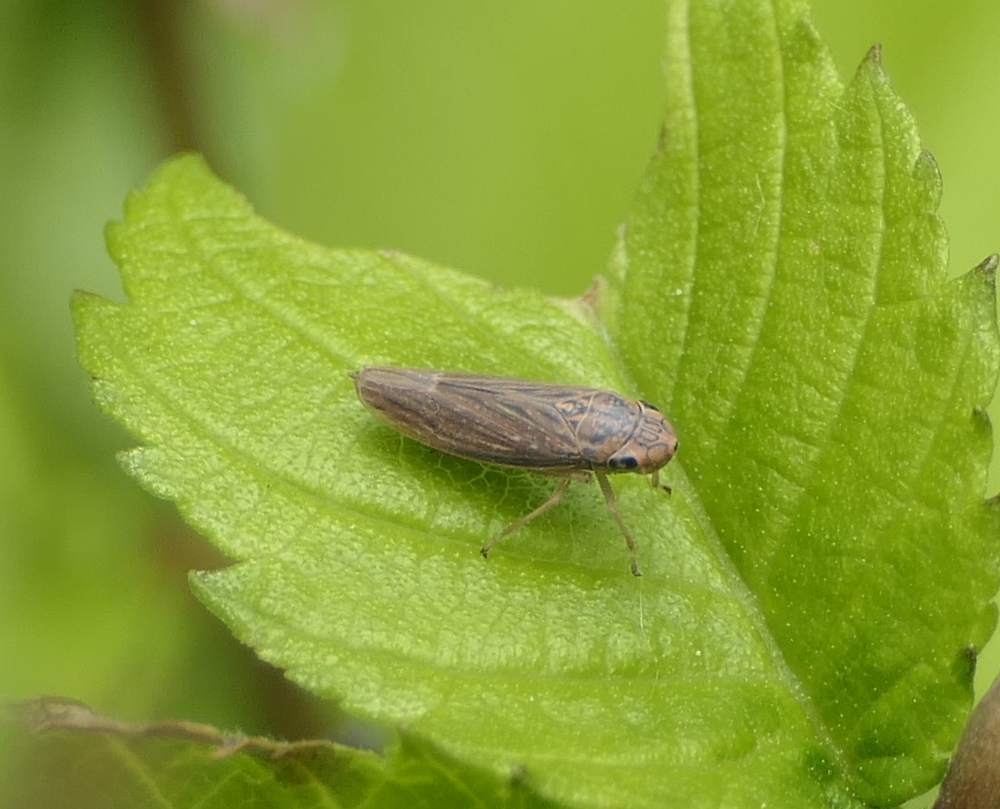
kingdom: Animalia
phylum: Arthropoda
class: Insecta
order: Hemiptera
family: Cicadellidae
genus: Neokolla
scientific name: Neokolla hieroglyphica
